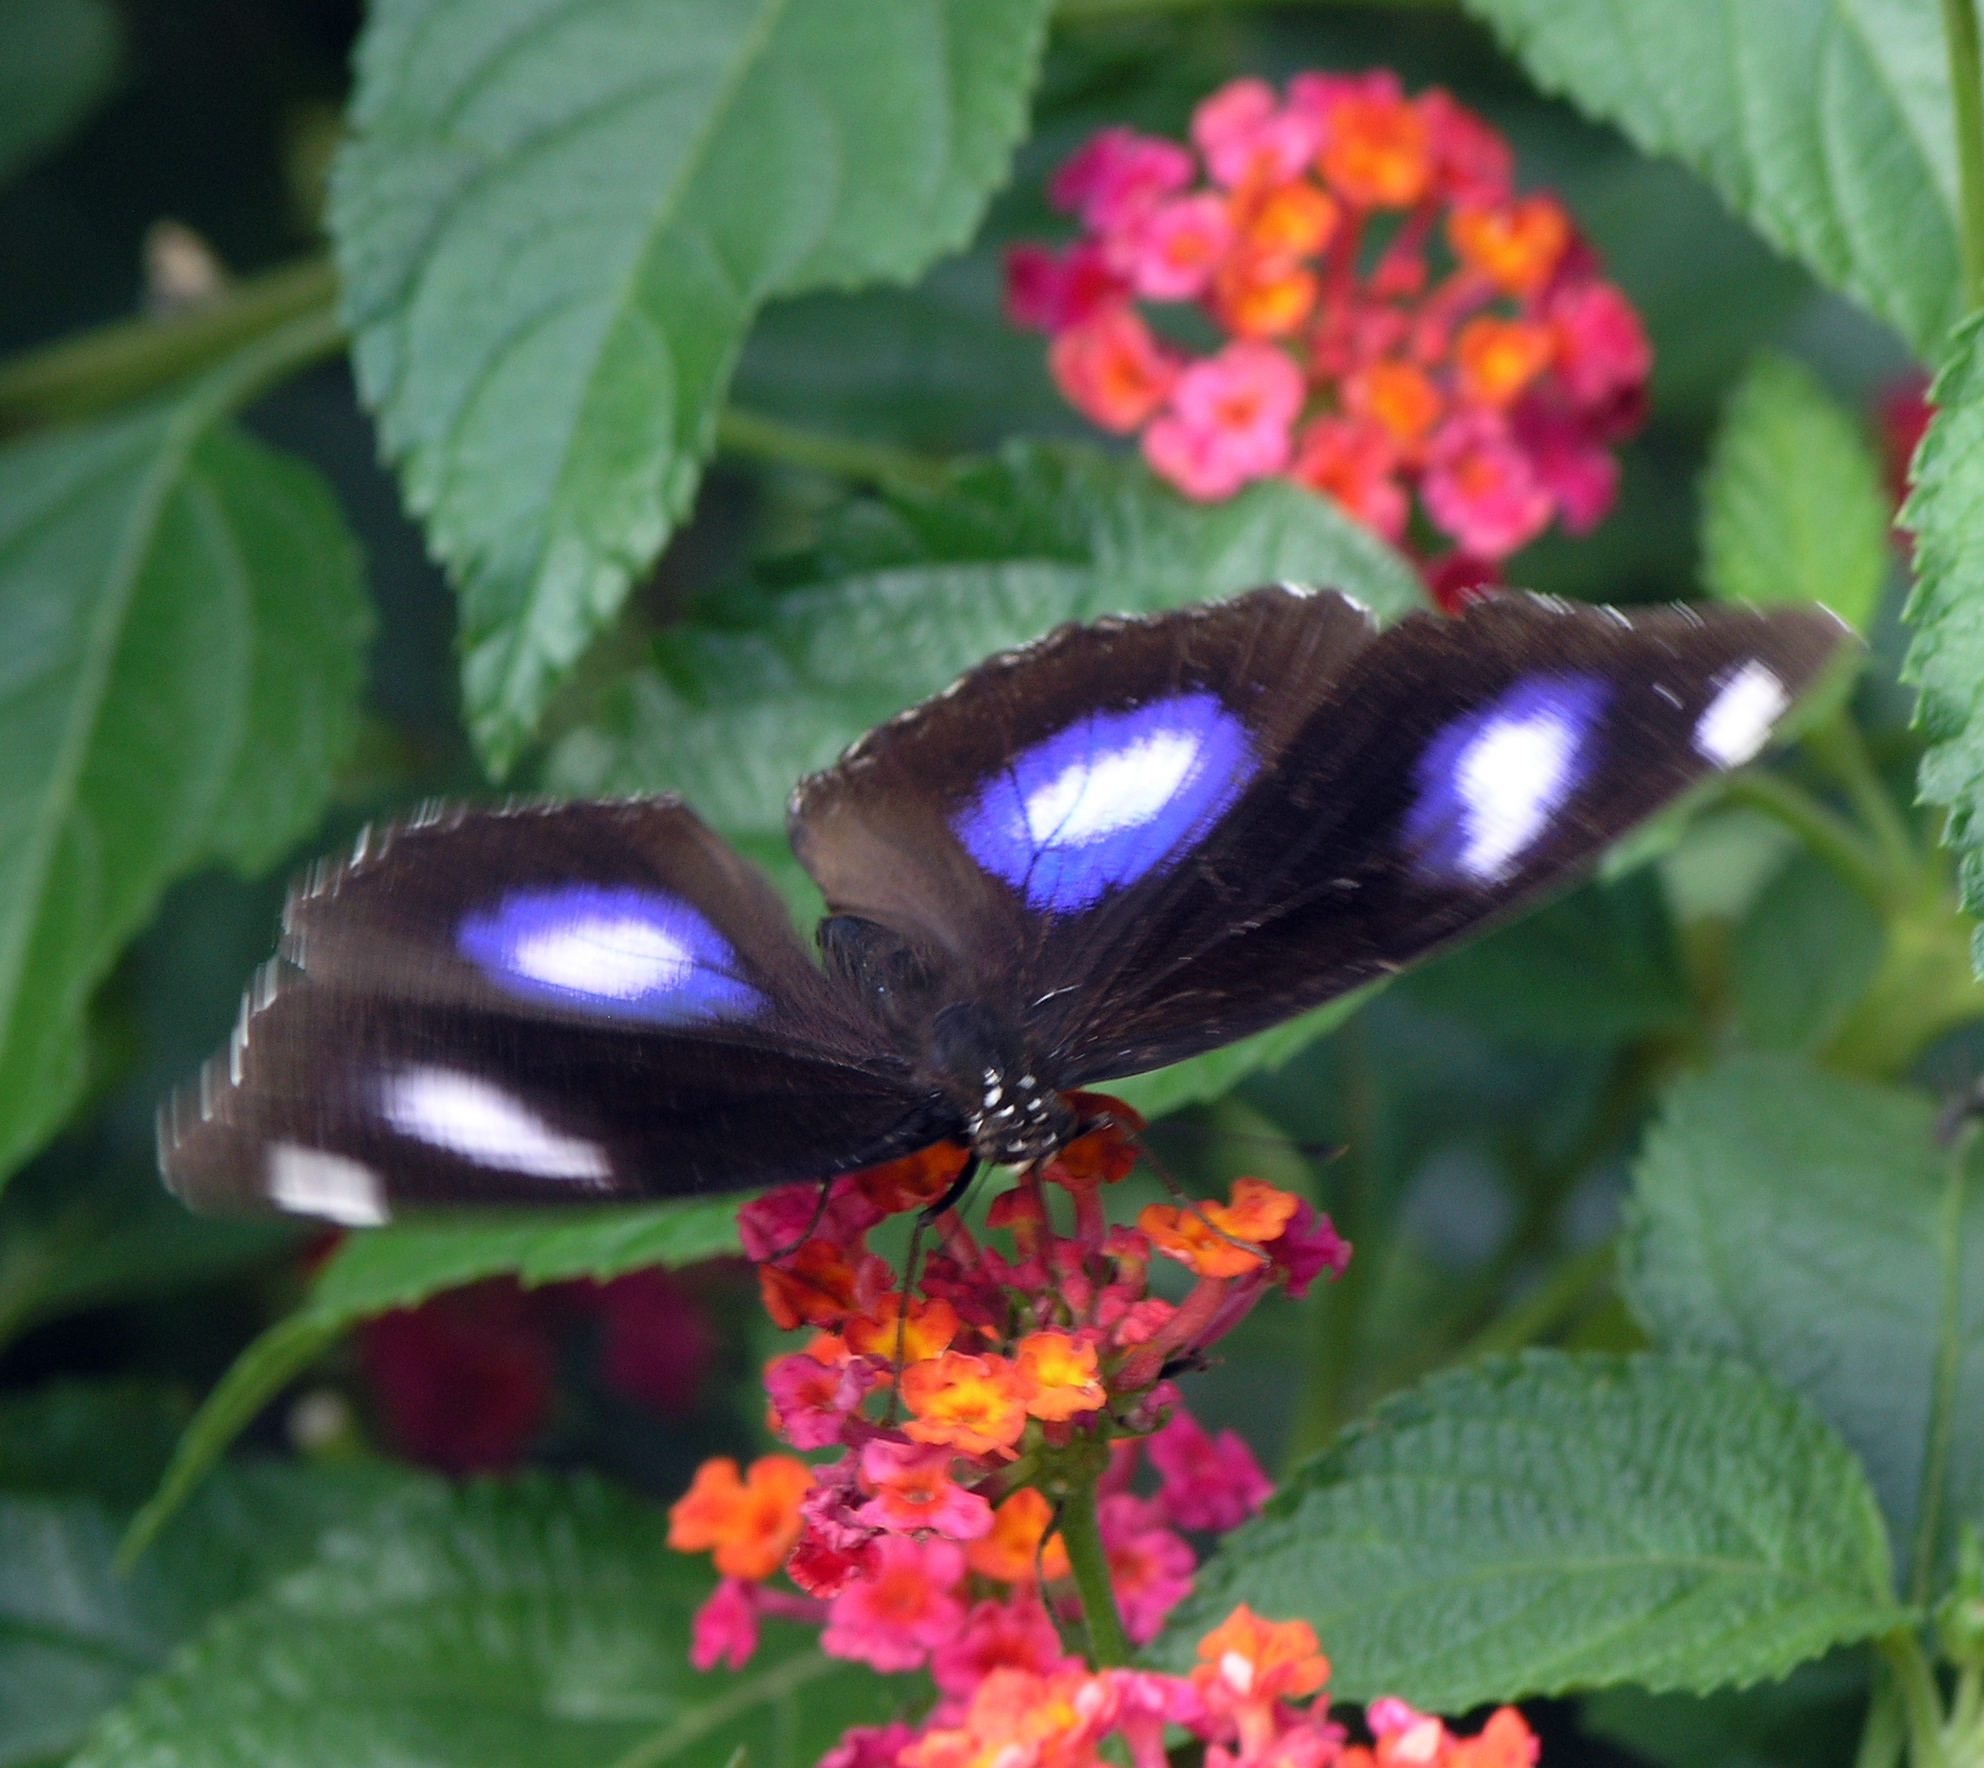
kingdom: Animalia
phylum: Arthropoda
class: Insecta
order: Lepidoptera
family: Nymphalidae
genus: Hypolimnas
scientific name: Hypolimnas bolina
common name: Great eggfly
